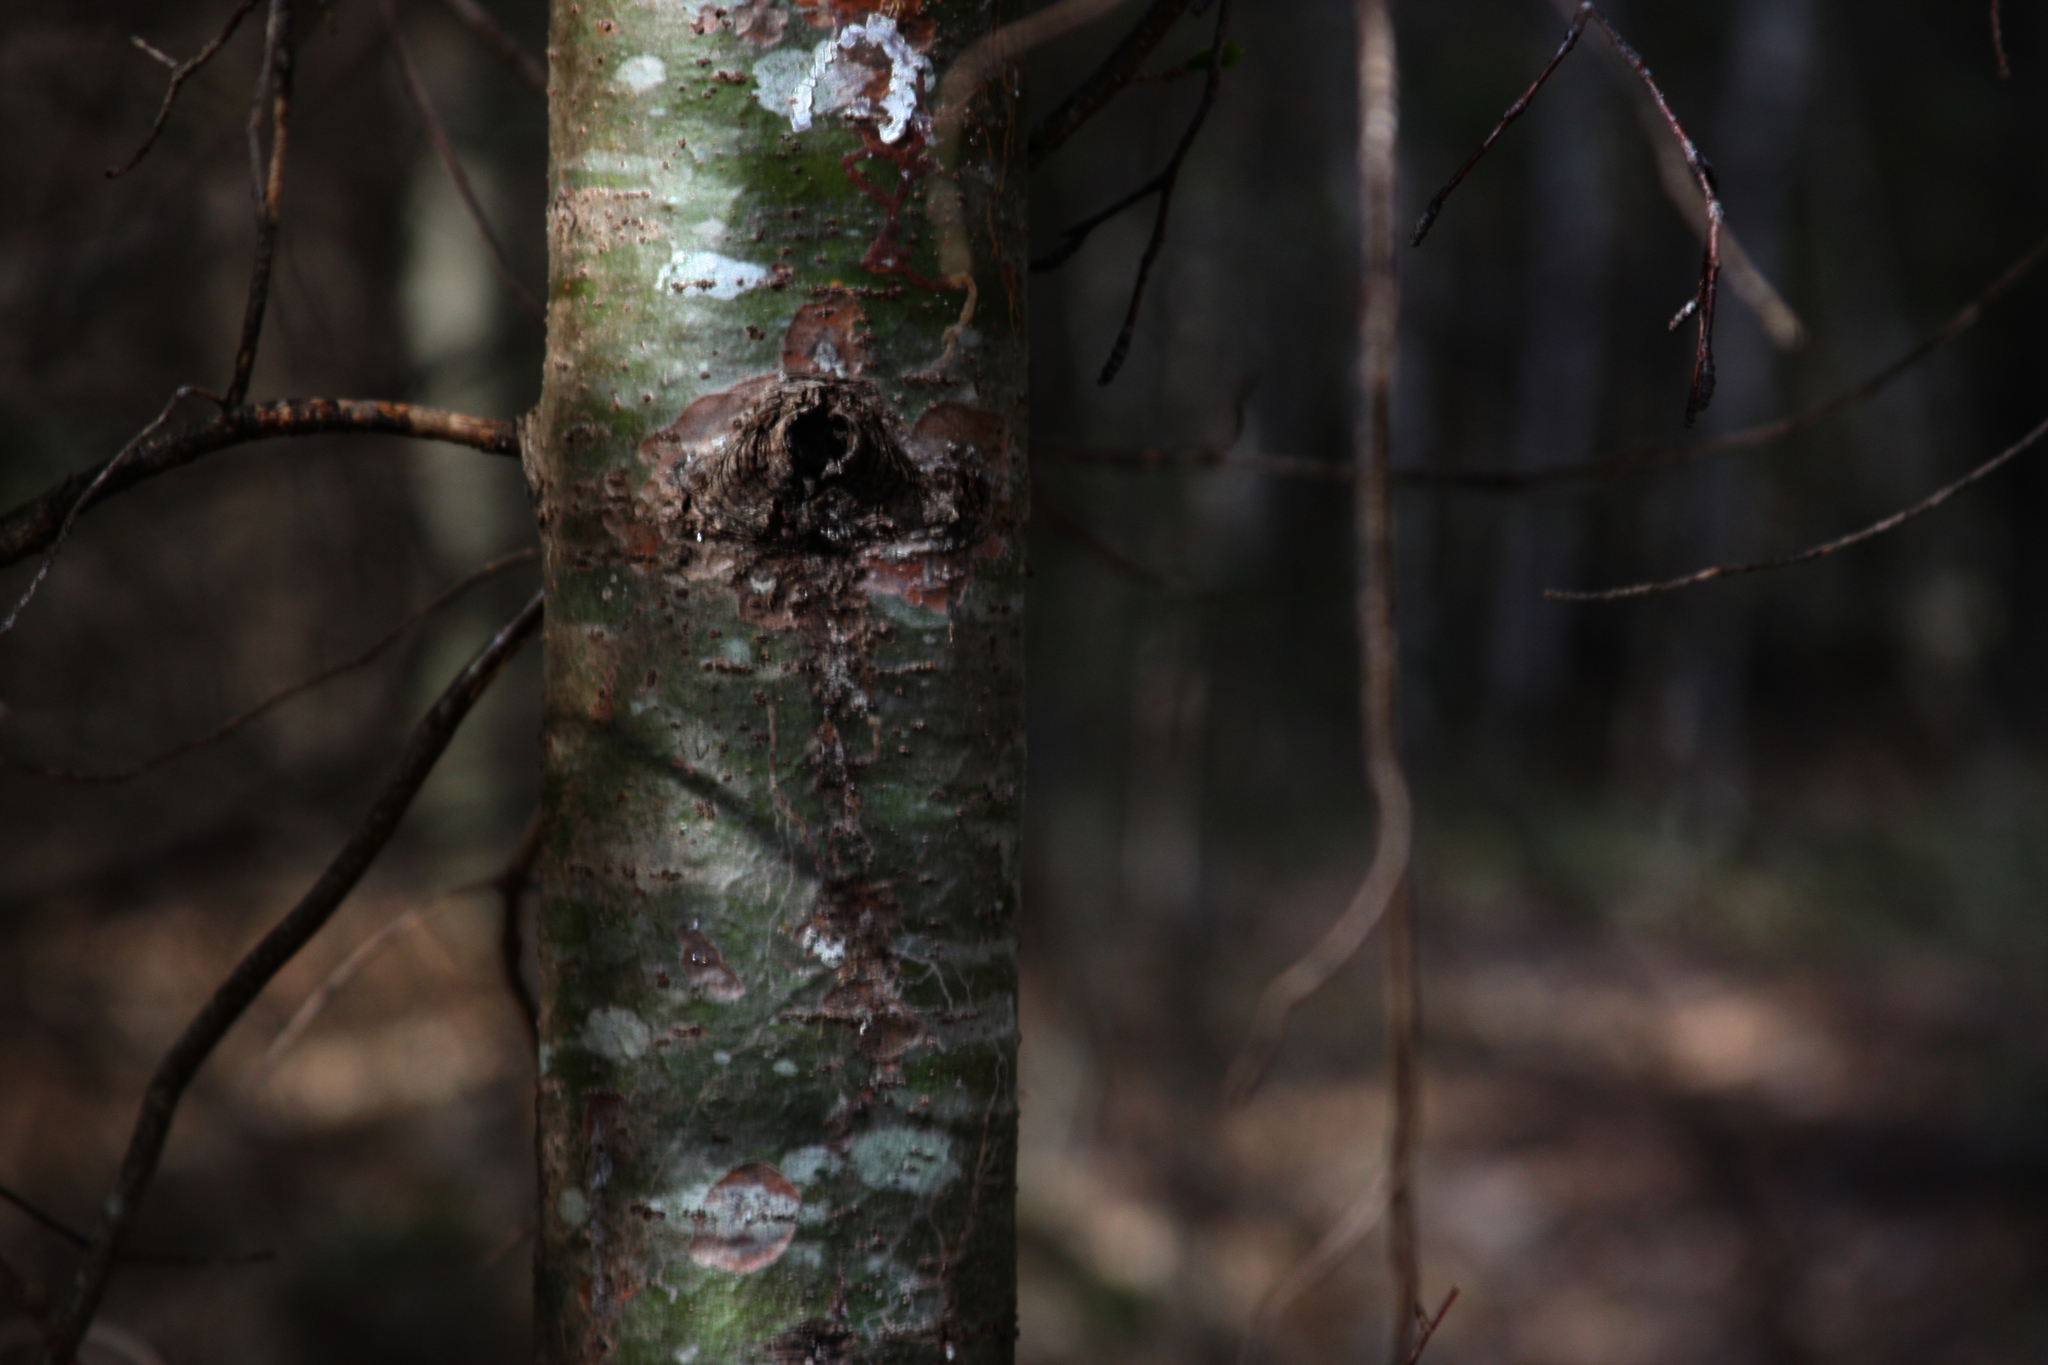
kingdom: Plantae
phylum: Tracheophyta
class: Pinopsida
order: Pinales
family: Pinaceae
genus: Pinus
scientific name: Pinus strobus
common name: Weymouth pine
